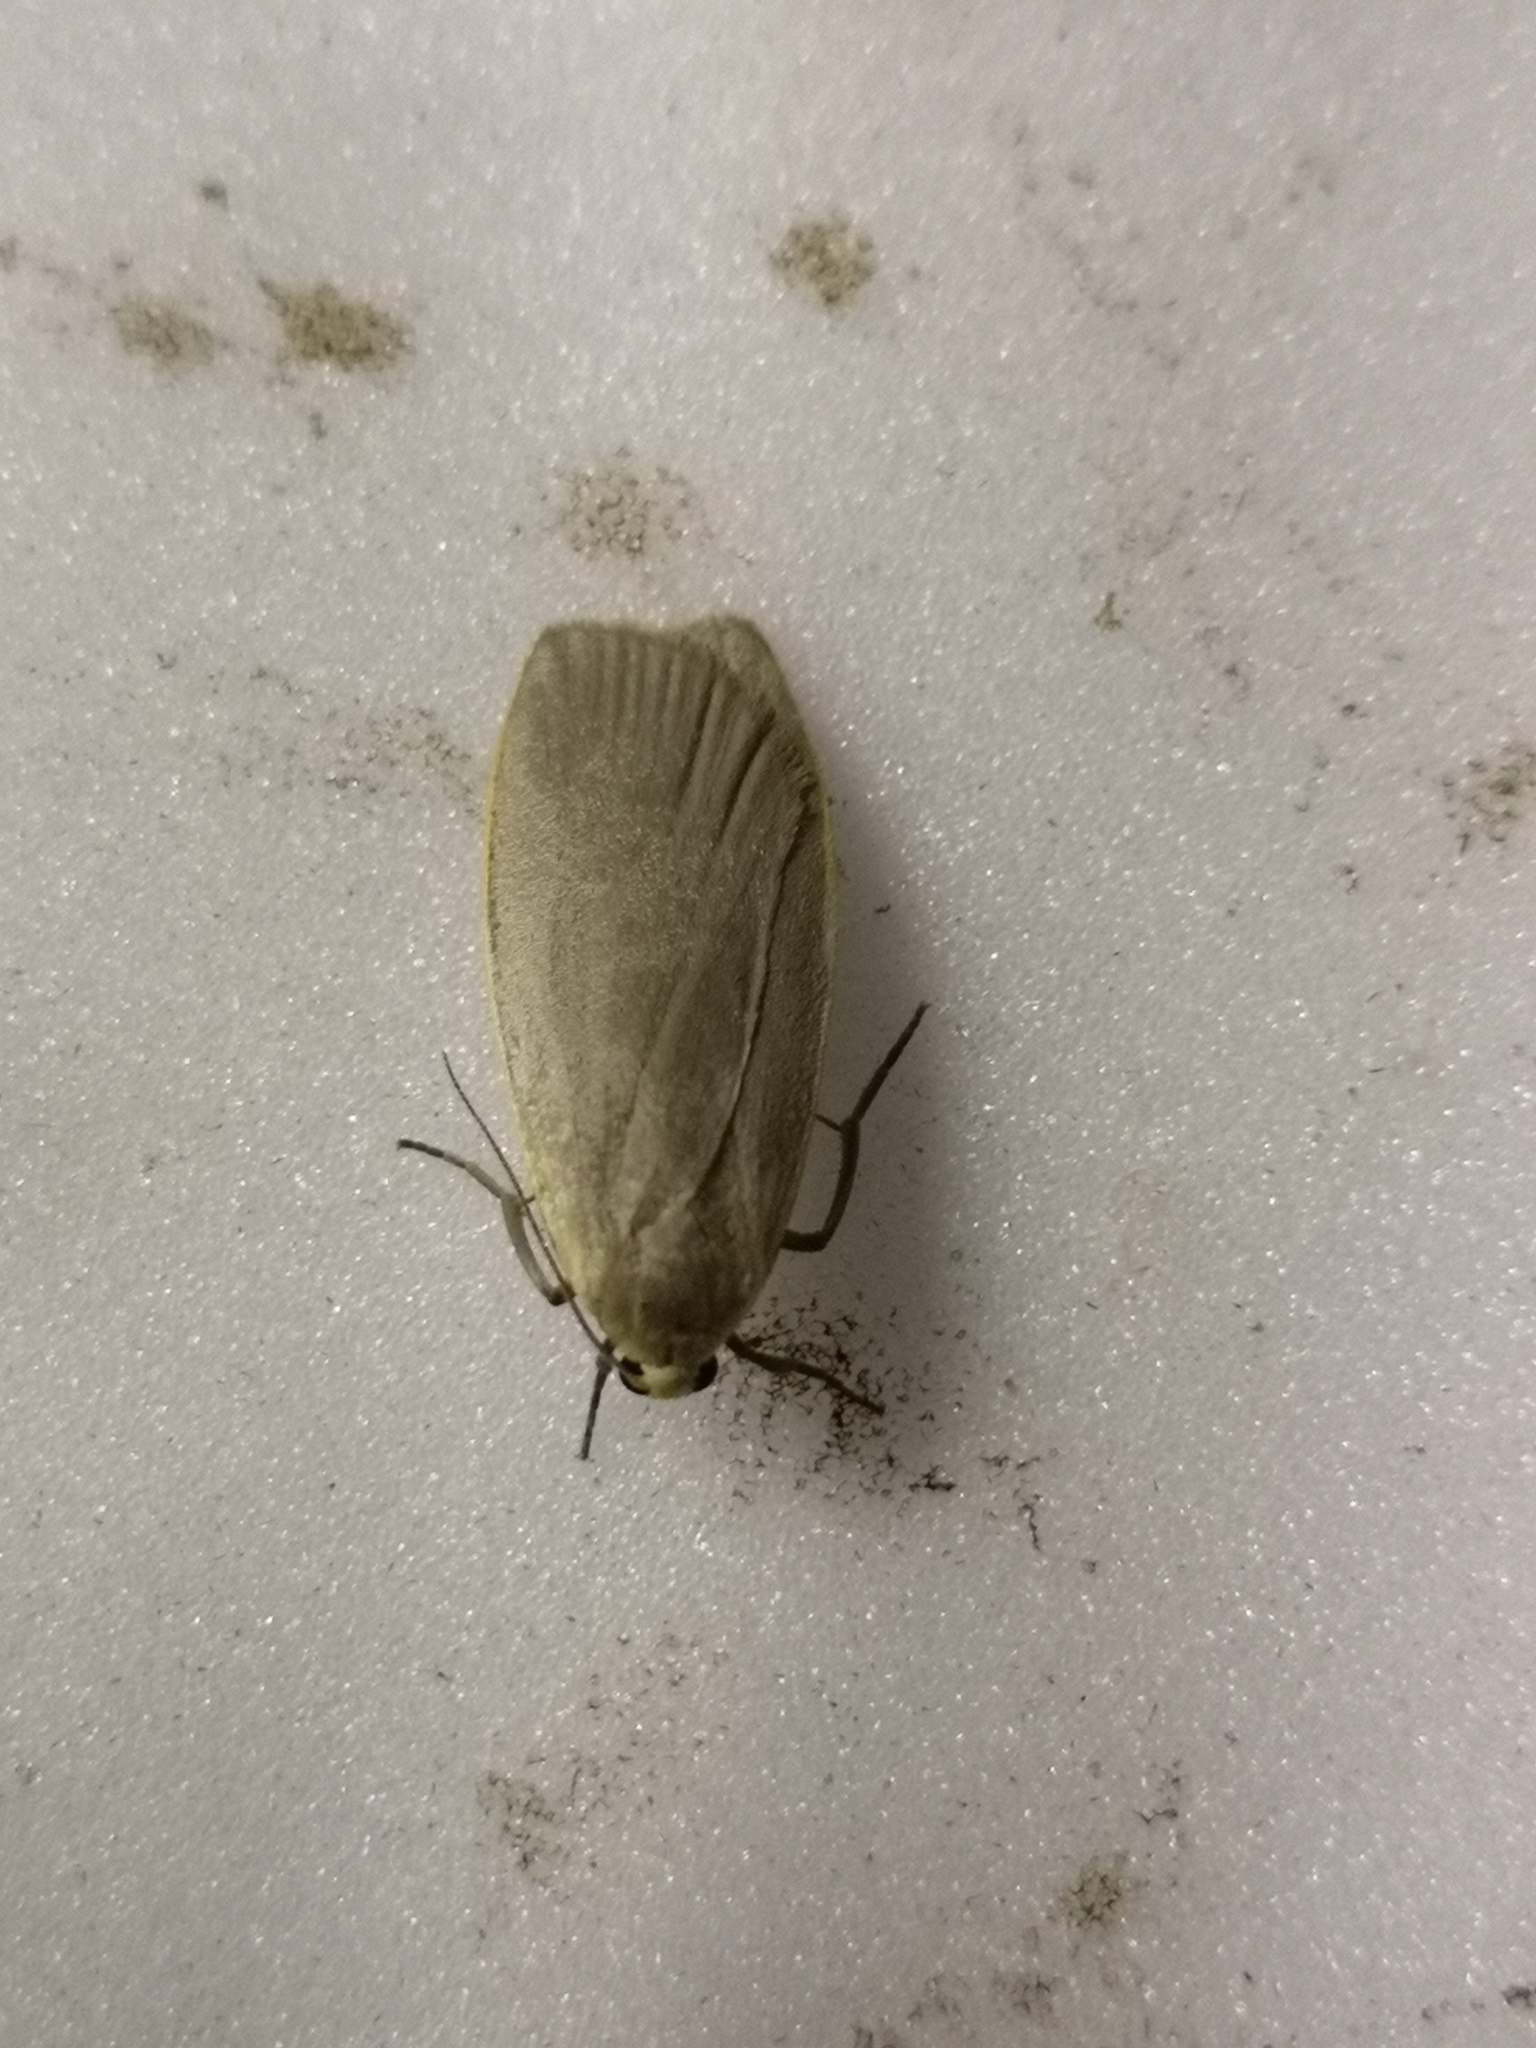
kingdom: Animalia
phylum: Arthropoda
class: Insecta
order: Lepidoptera
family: Erebidae
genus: Collita
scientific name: Collita griseola
